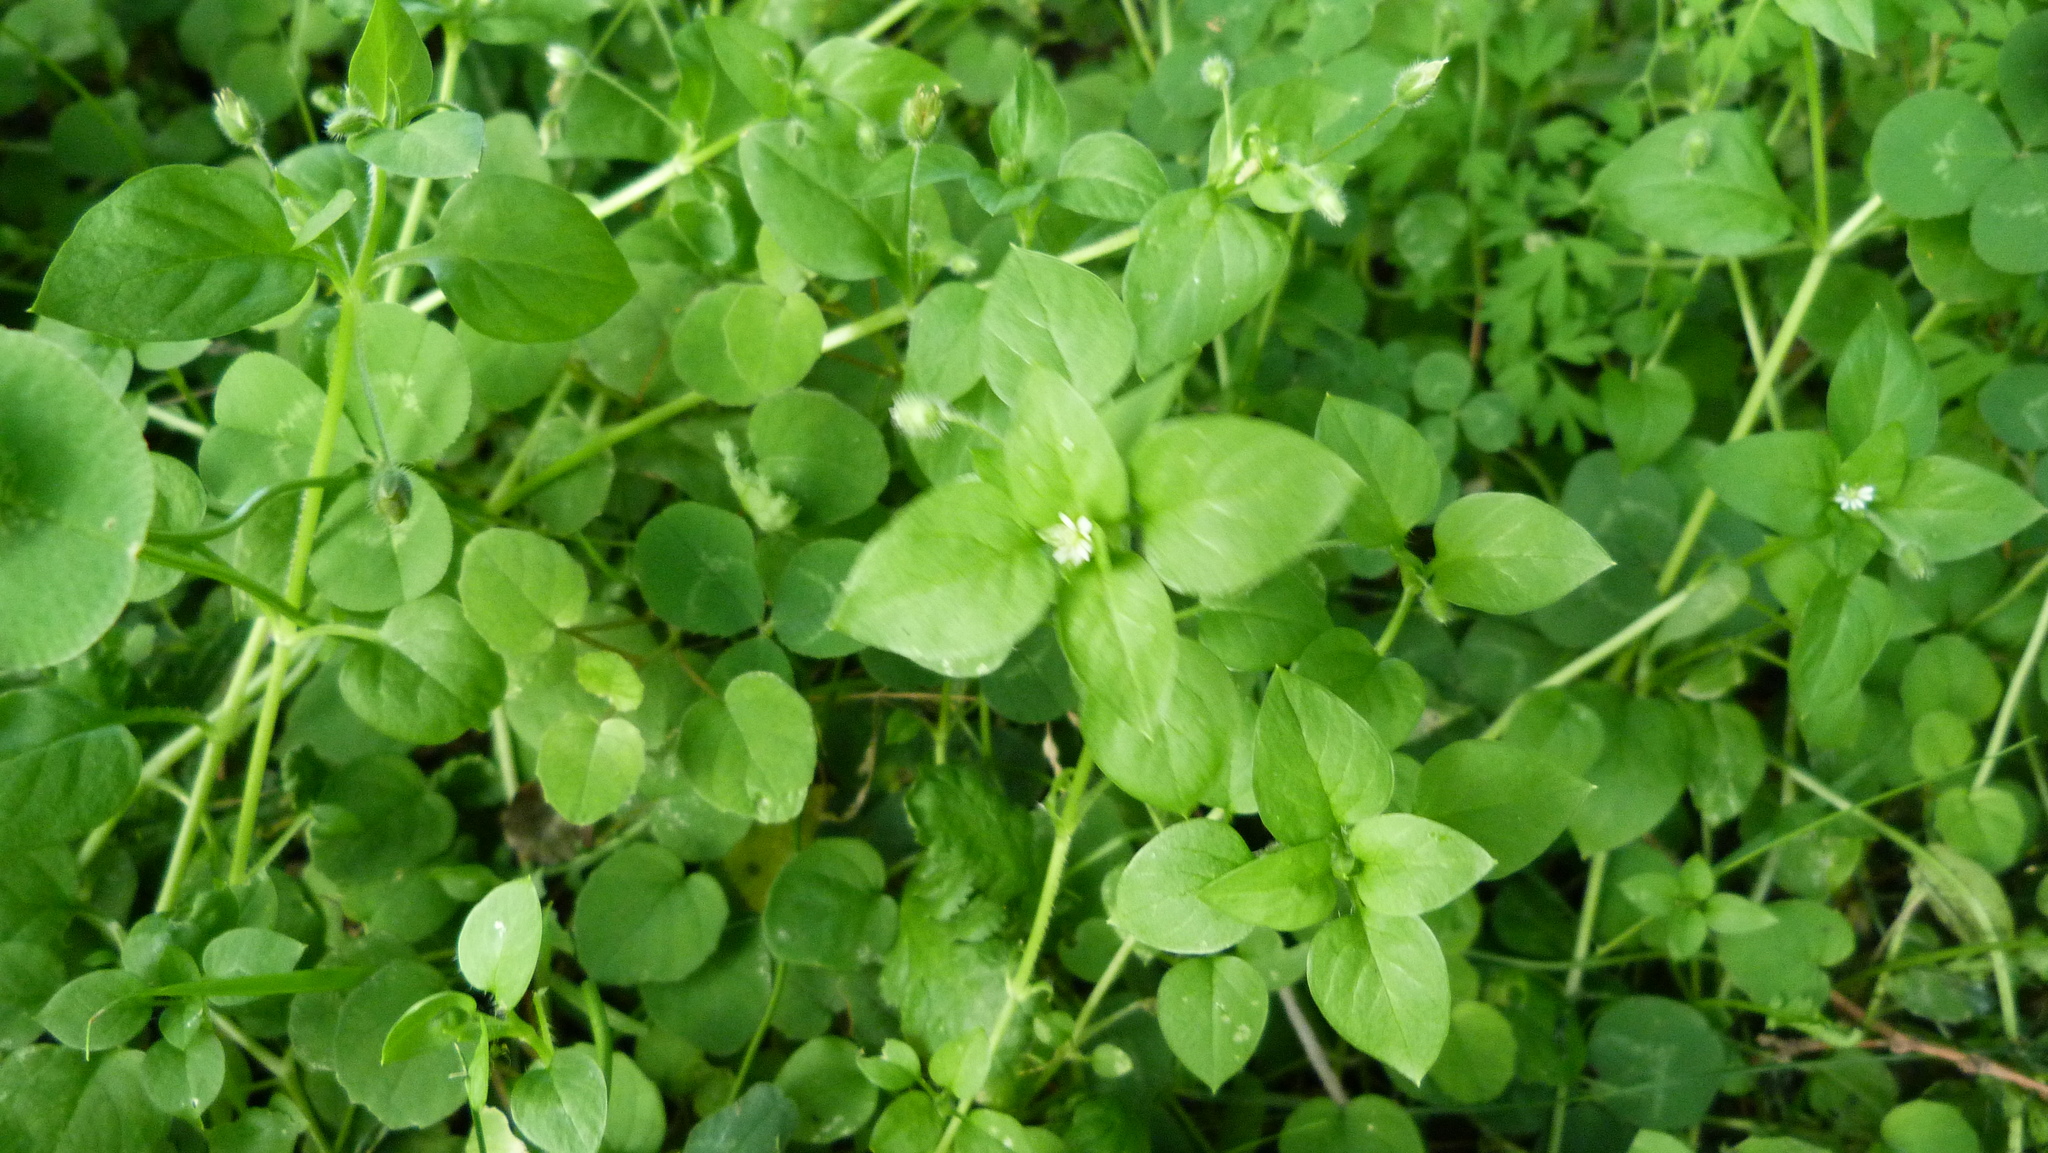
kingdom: Plantae
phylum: Tracheophyta
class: Magnoliopsida
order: Caryophyllales
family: Caryophyllaceae
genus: Stellaria
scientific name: Stellaria media
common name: Common chickweed
